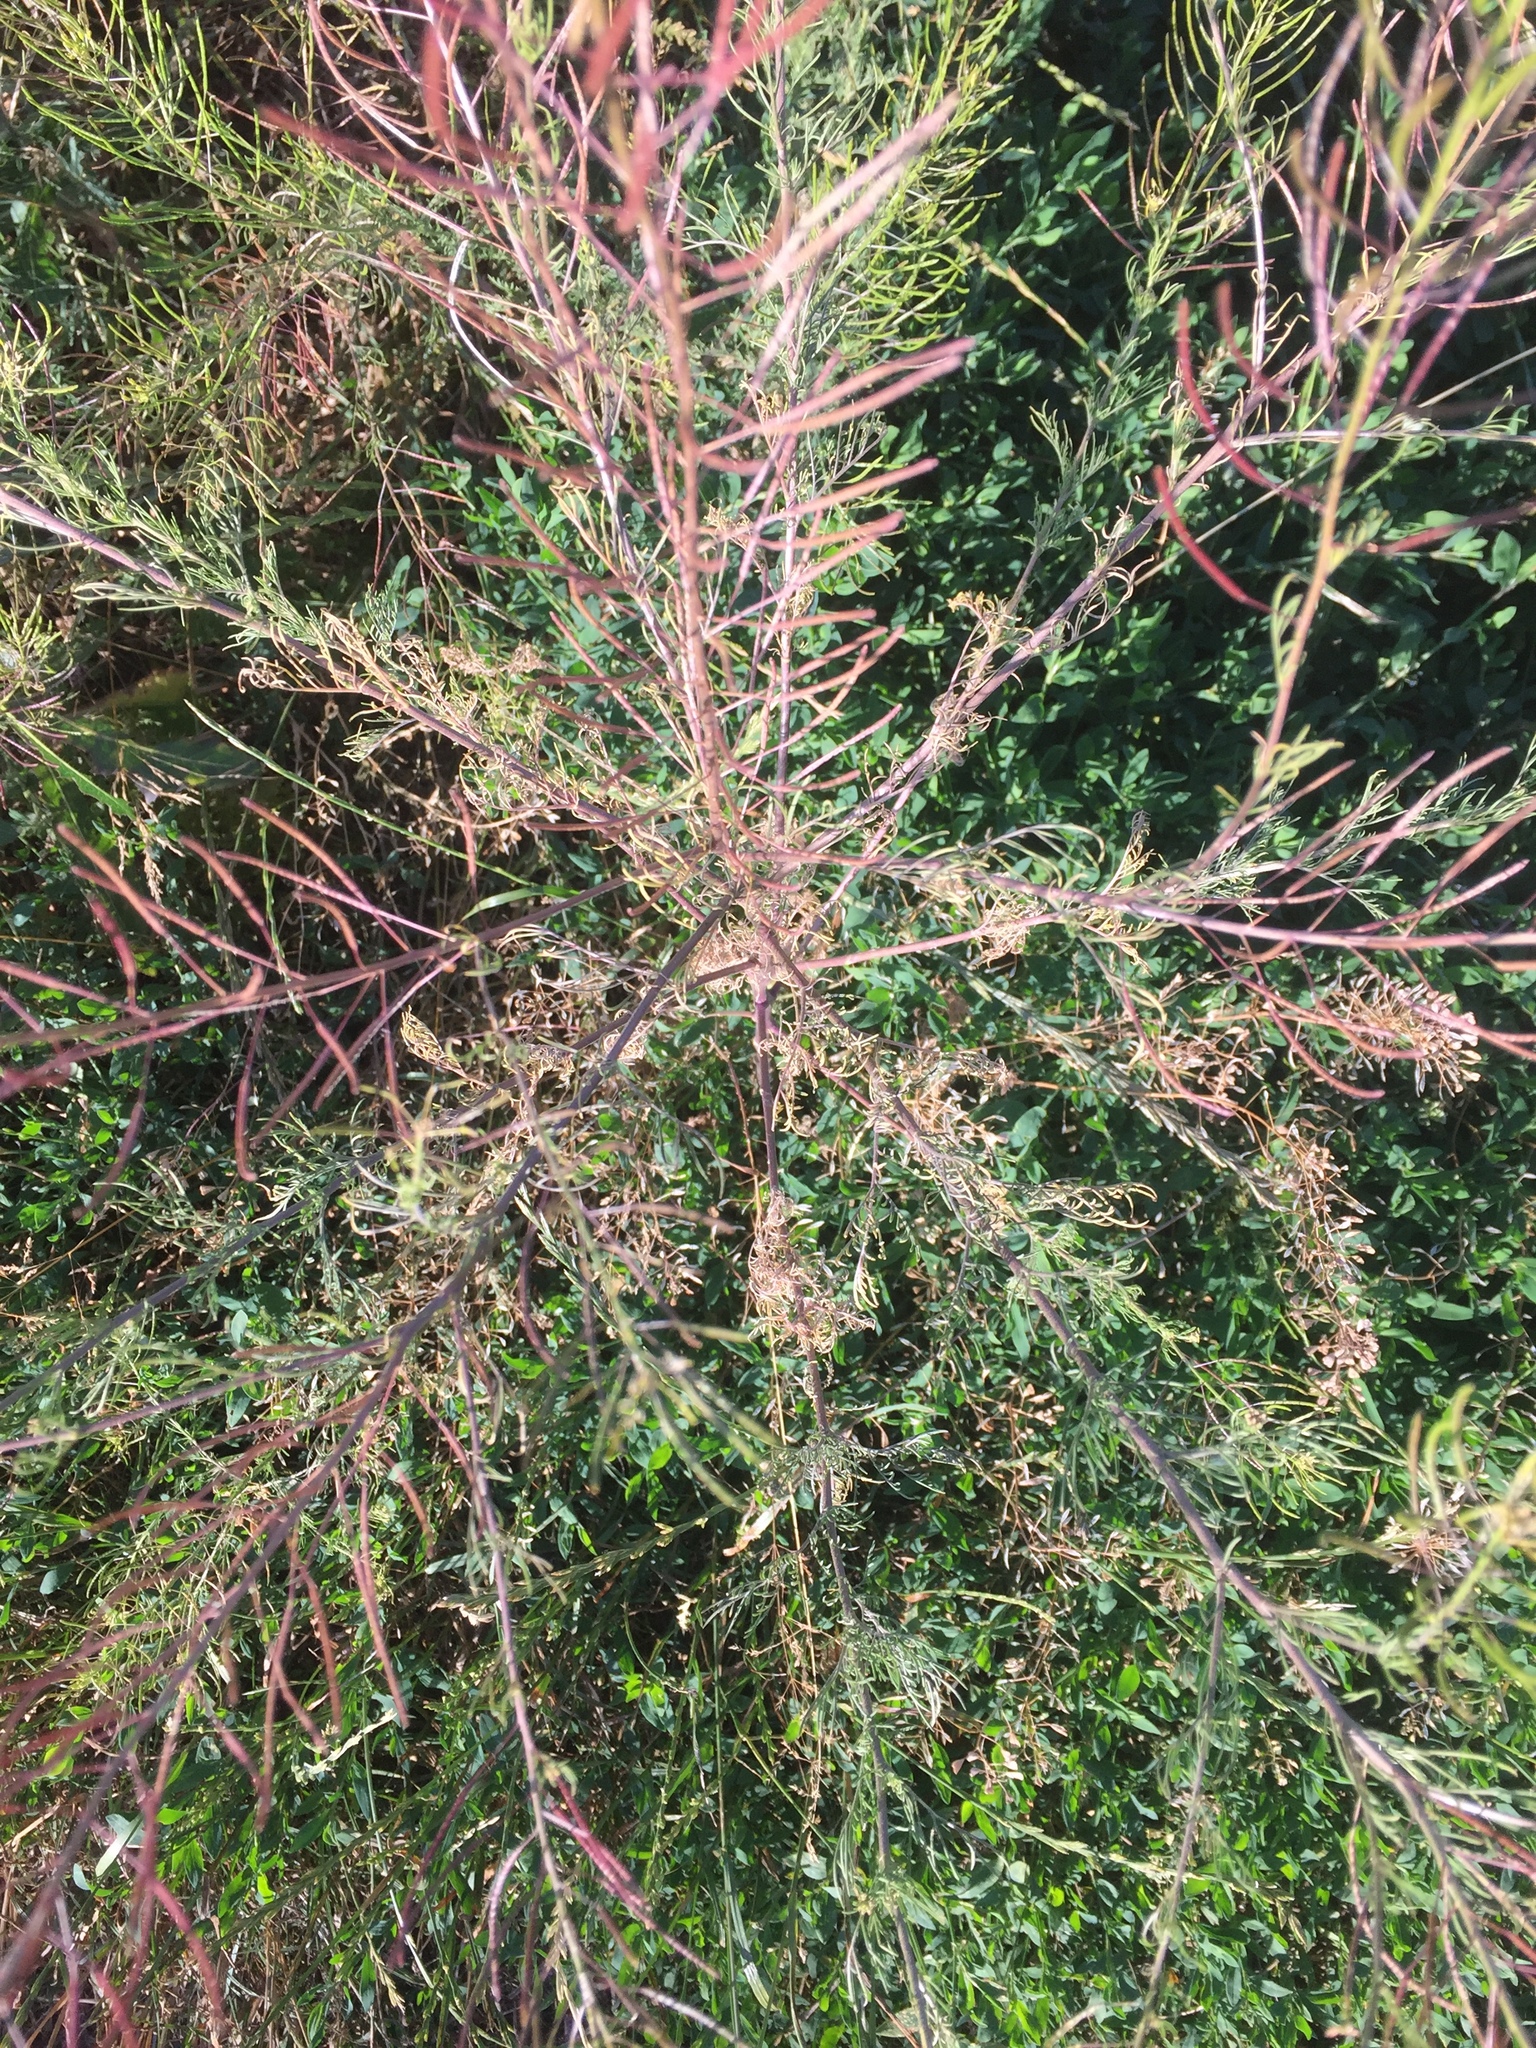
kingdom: Plantae
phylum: Tracheophyta
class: Magnoliopsida
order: Brassicales
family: Brassicaceae
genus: Descurainia
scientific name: Descurainia sophia
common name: Flixweed
